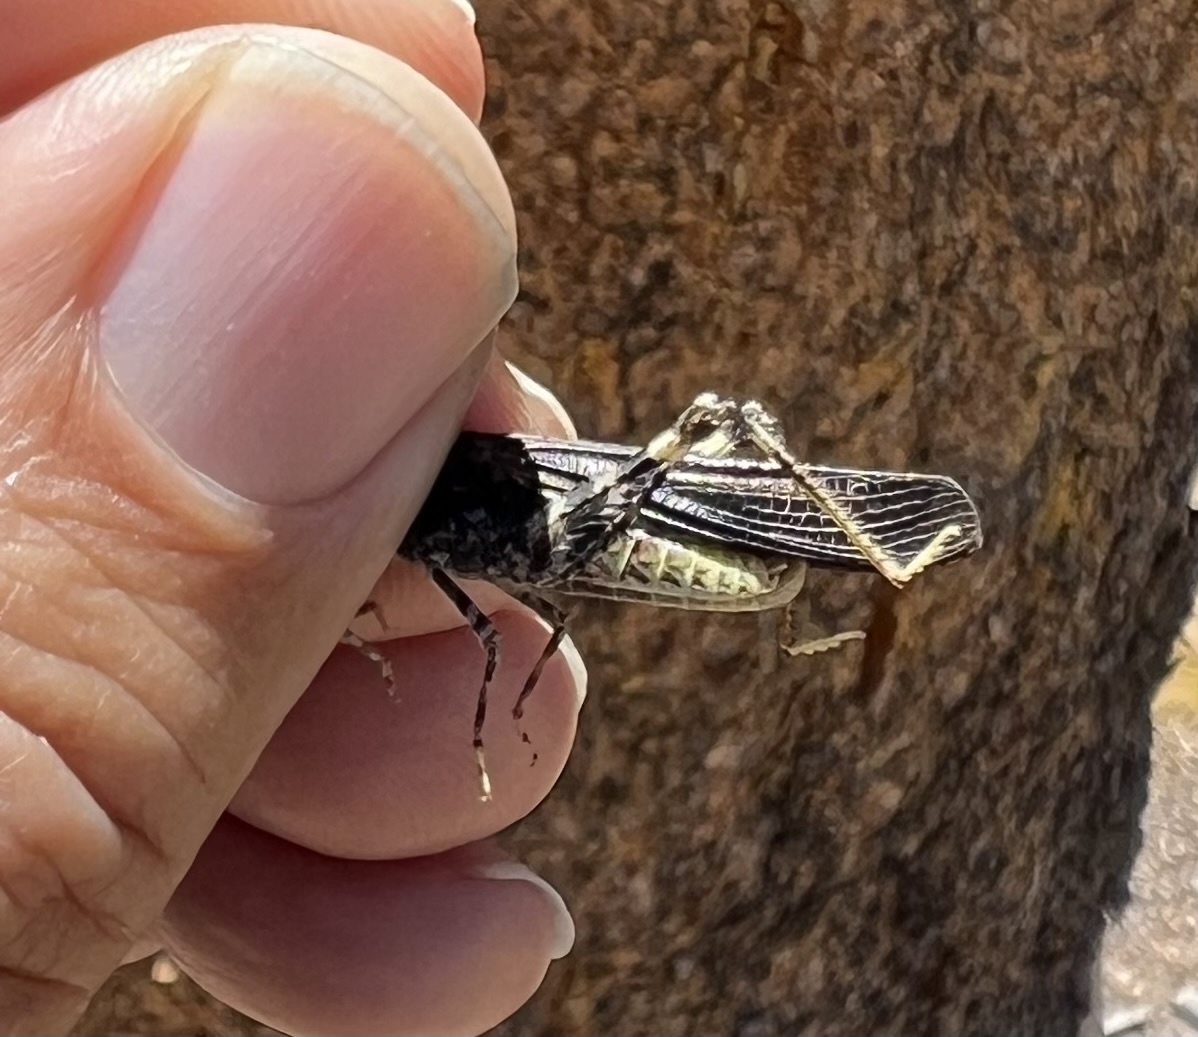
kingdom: Animalia
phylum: Arthropoda
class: Insecta
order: Orthoptera
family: Acrididae
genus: Circotettix
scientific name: Circotettix maculatus
